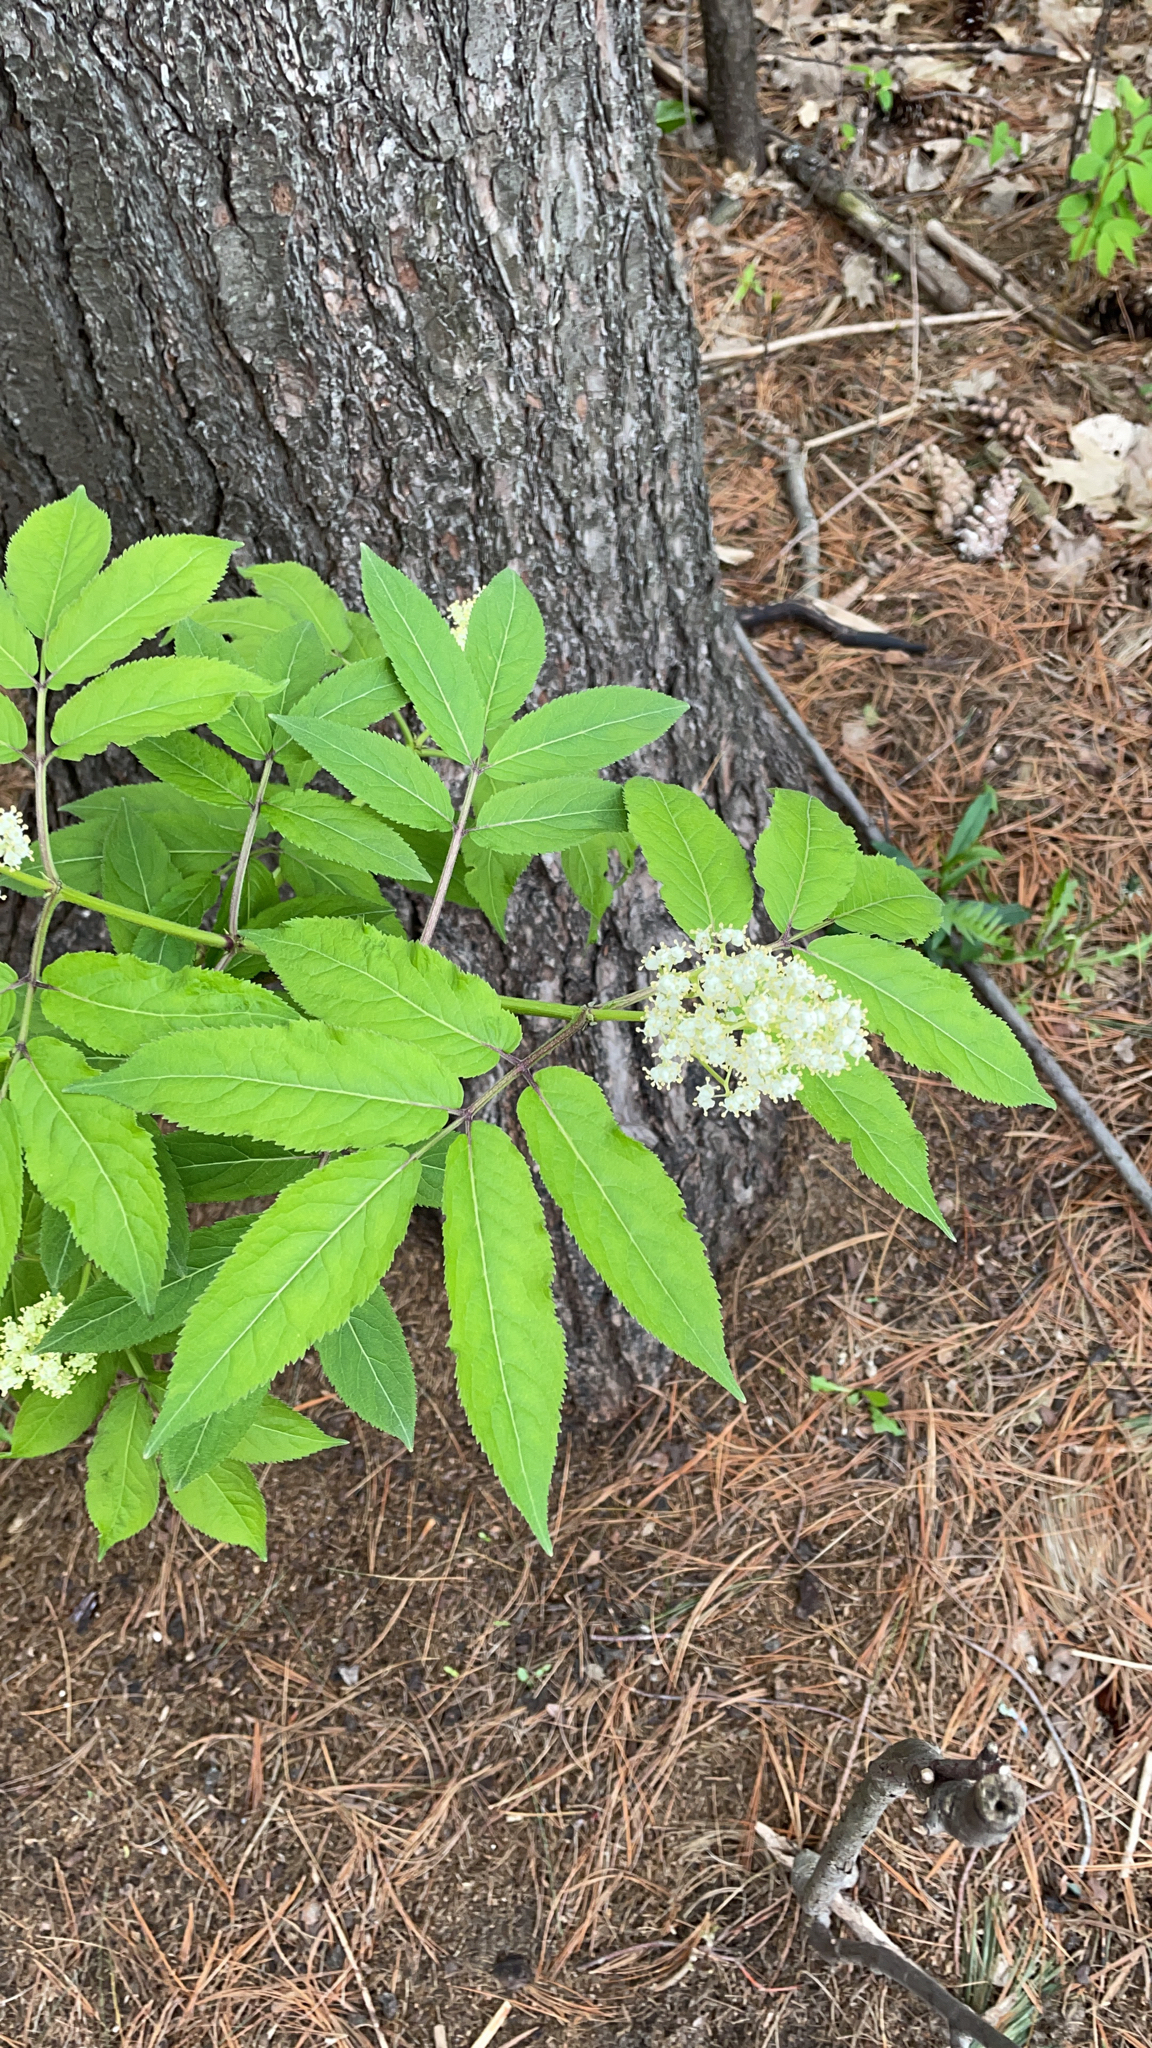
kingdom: Plantae
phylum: Tracheophyta
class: Magnoliopsida
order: Dipsacales
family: Viburnaceae
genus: Sambucus
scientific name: Sambucus racemosa
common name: Red-berried elder
